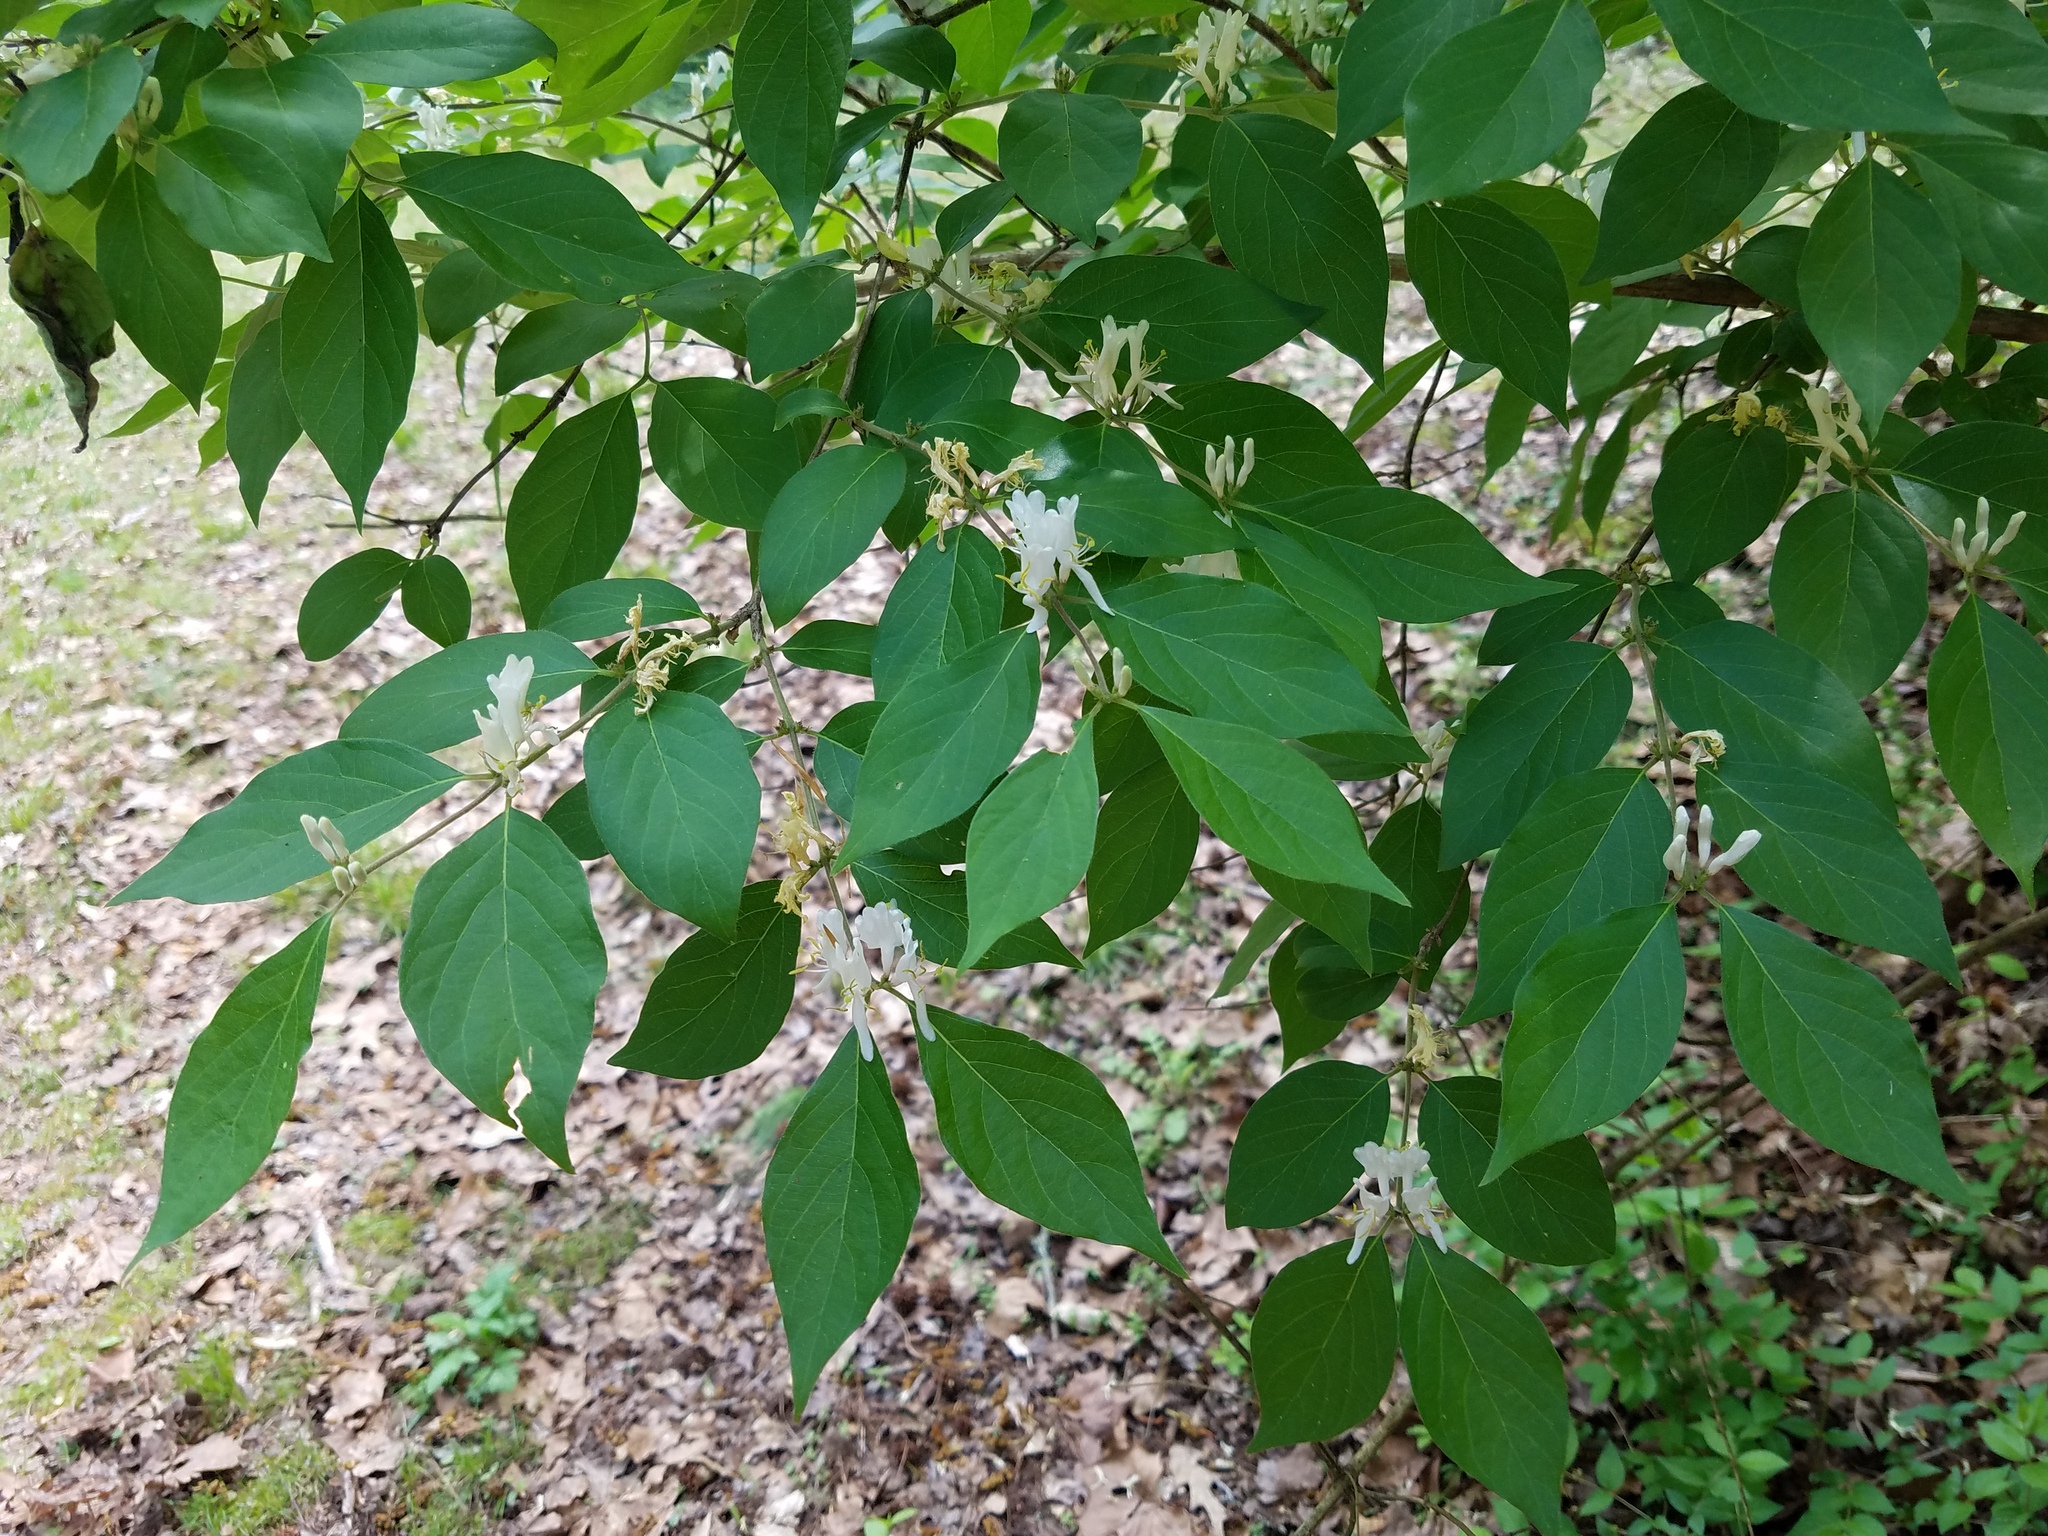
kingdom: Plantae
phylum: Tracheophyta
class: Magnoliopsida
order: Dipsacales
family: Caprifoliaceae
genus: Lonicera
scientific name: Lonicera maackii
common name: Amur honeysuckle
